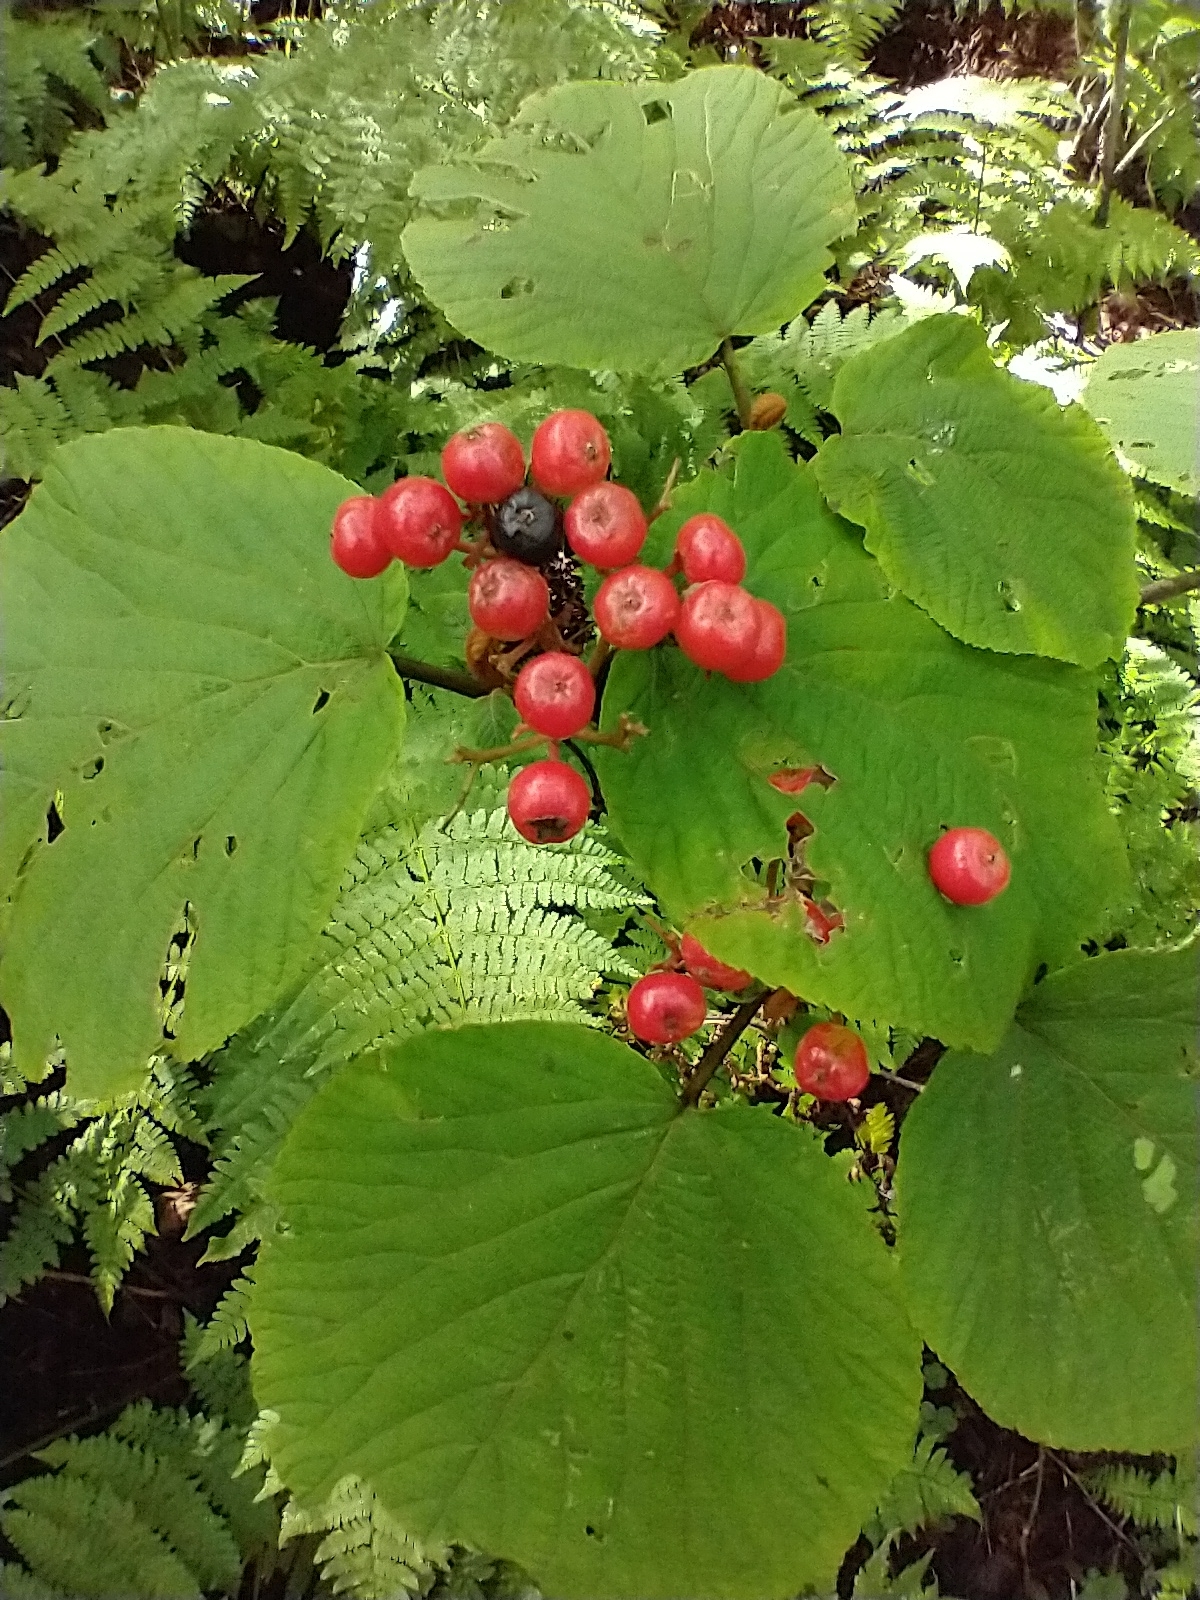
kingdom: Plantae
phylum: Tracheophyta
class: Magnoliopsida
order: Dipsacales
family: Viburnaceae
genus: Viburnum
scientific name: Viburnum lantanoides
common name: Hobblebush
